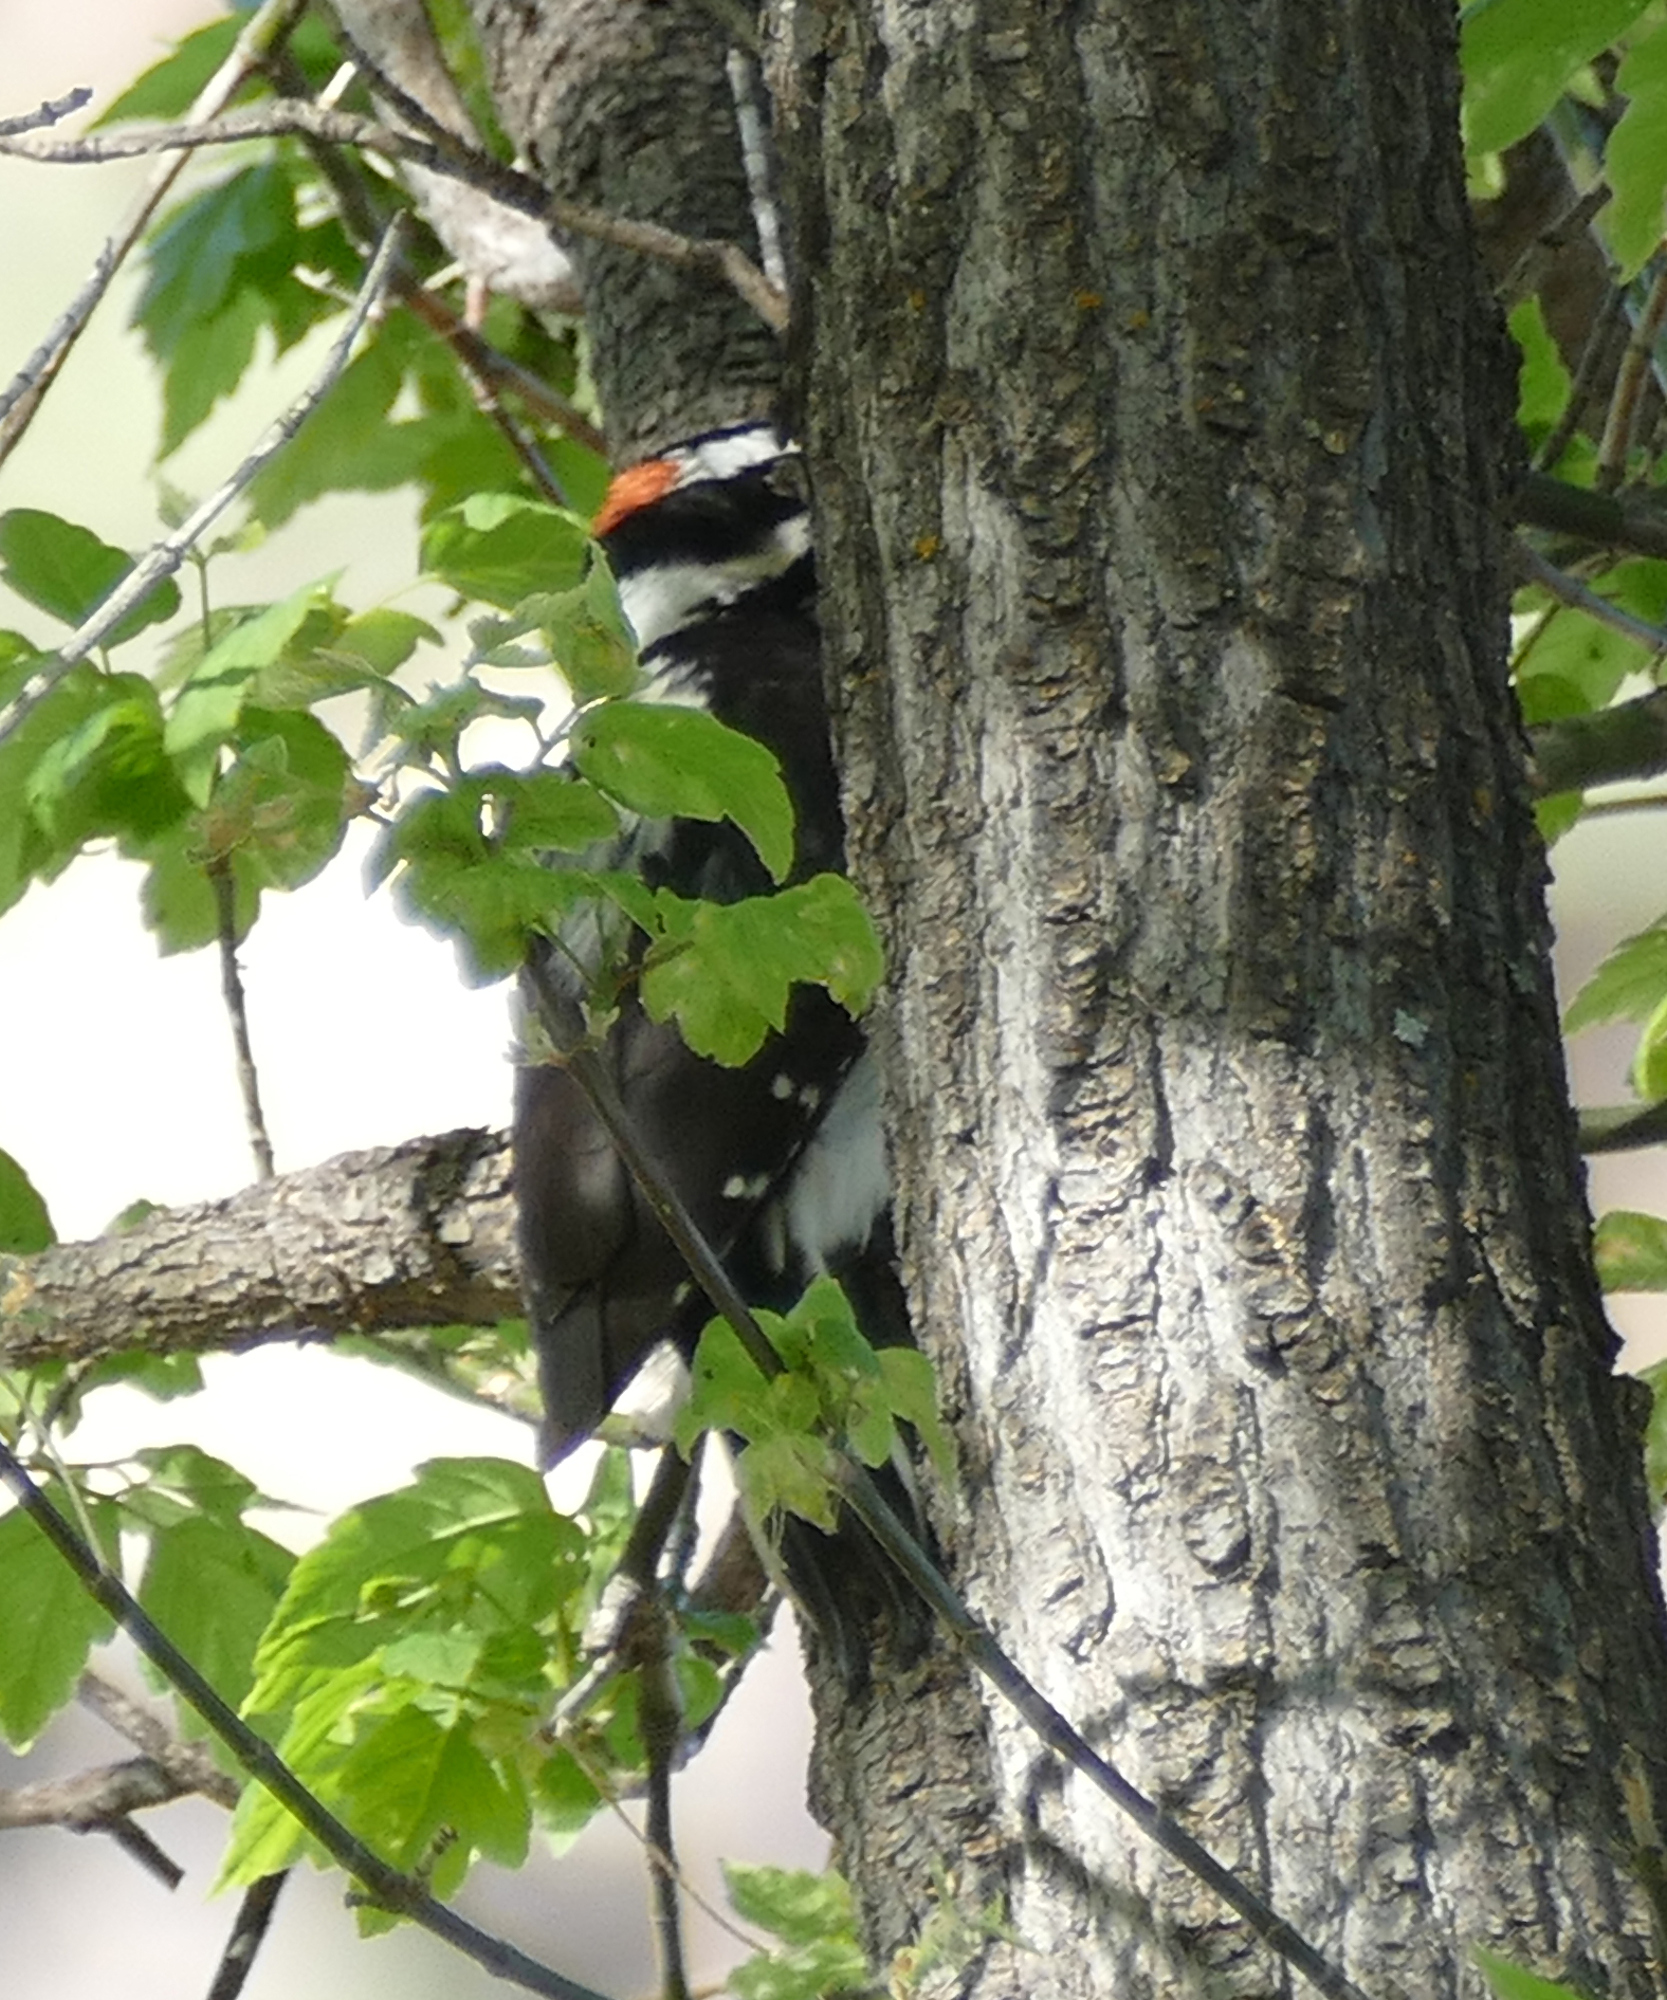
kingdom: Animalia
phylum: Chordata
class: Aves
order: Piciformes
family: Picidae
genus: Leuconotopicus
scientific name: Leuconotopicus villosus
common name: Hairy woodpecker
